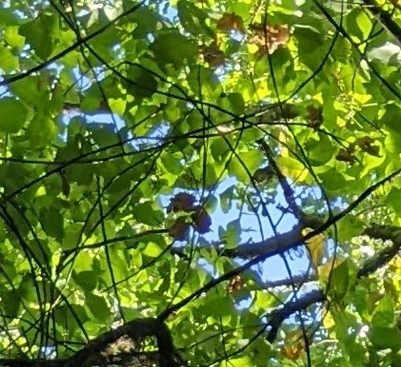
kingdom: Plantae
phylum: Tracheophyta
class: Magnoliopsida
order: Sapindales
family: Anacardiaceae
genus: Toxicodendron
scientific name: Toxicodendron radicans
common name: Poison ivy
